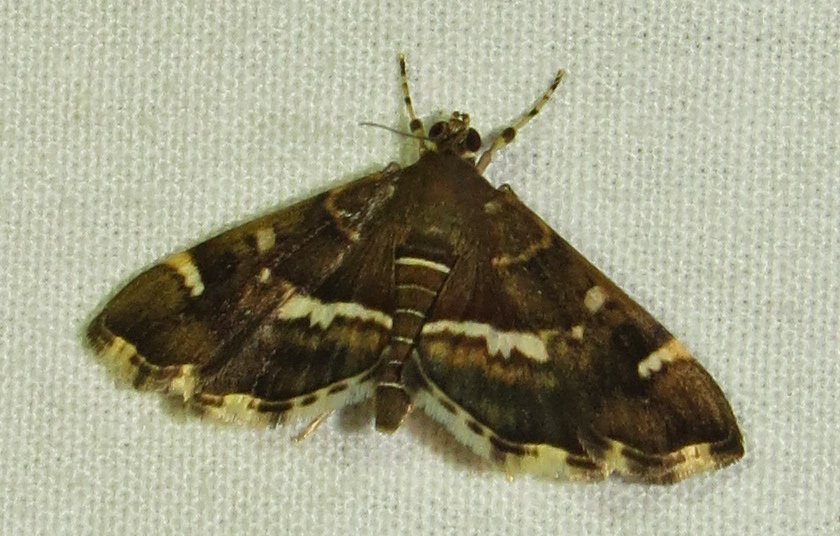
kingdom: Animalia
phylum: Arthropoda
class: Insecta
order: Lepidoptera
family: Crambidae
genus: Hymenia
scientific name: Hymenia perspectalis
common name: Spotted beet webworm
